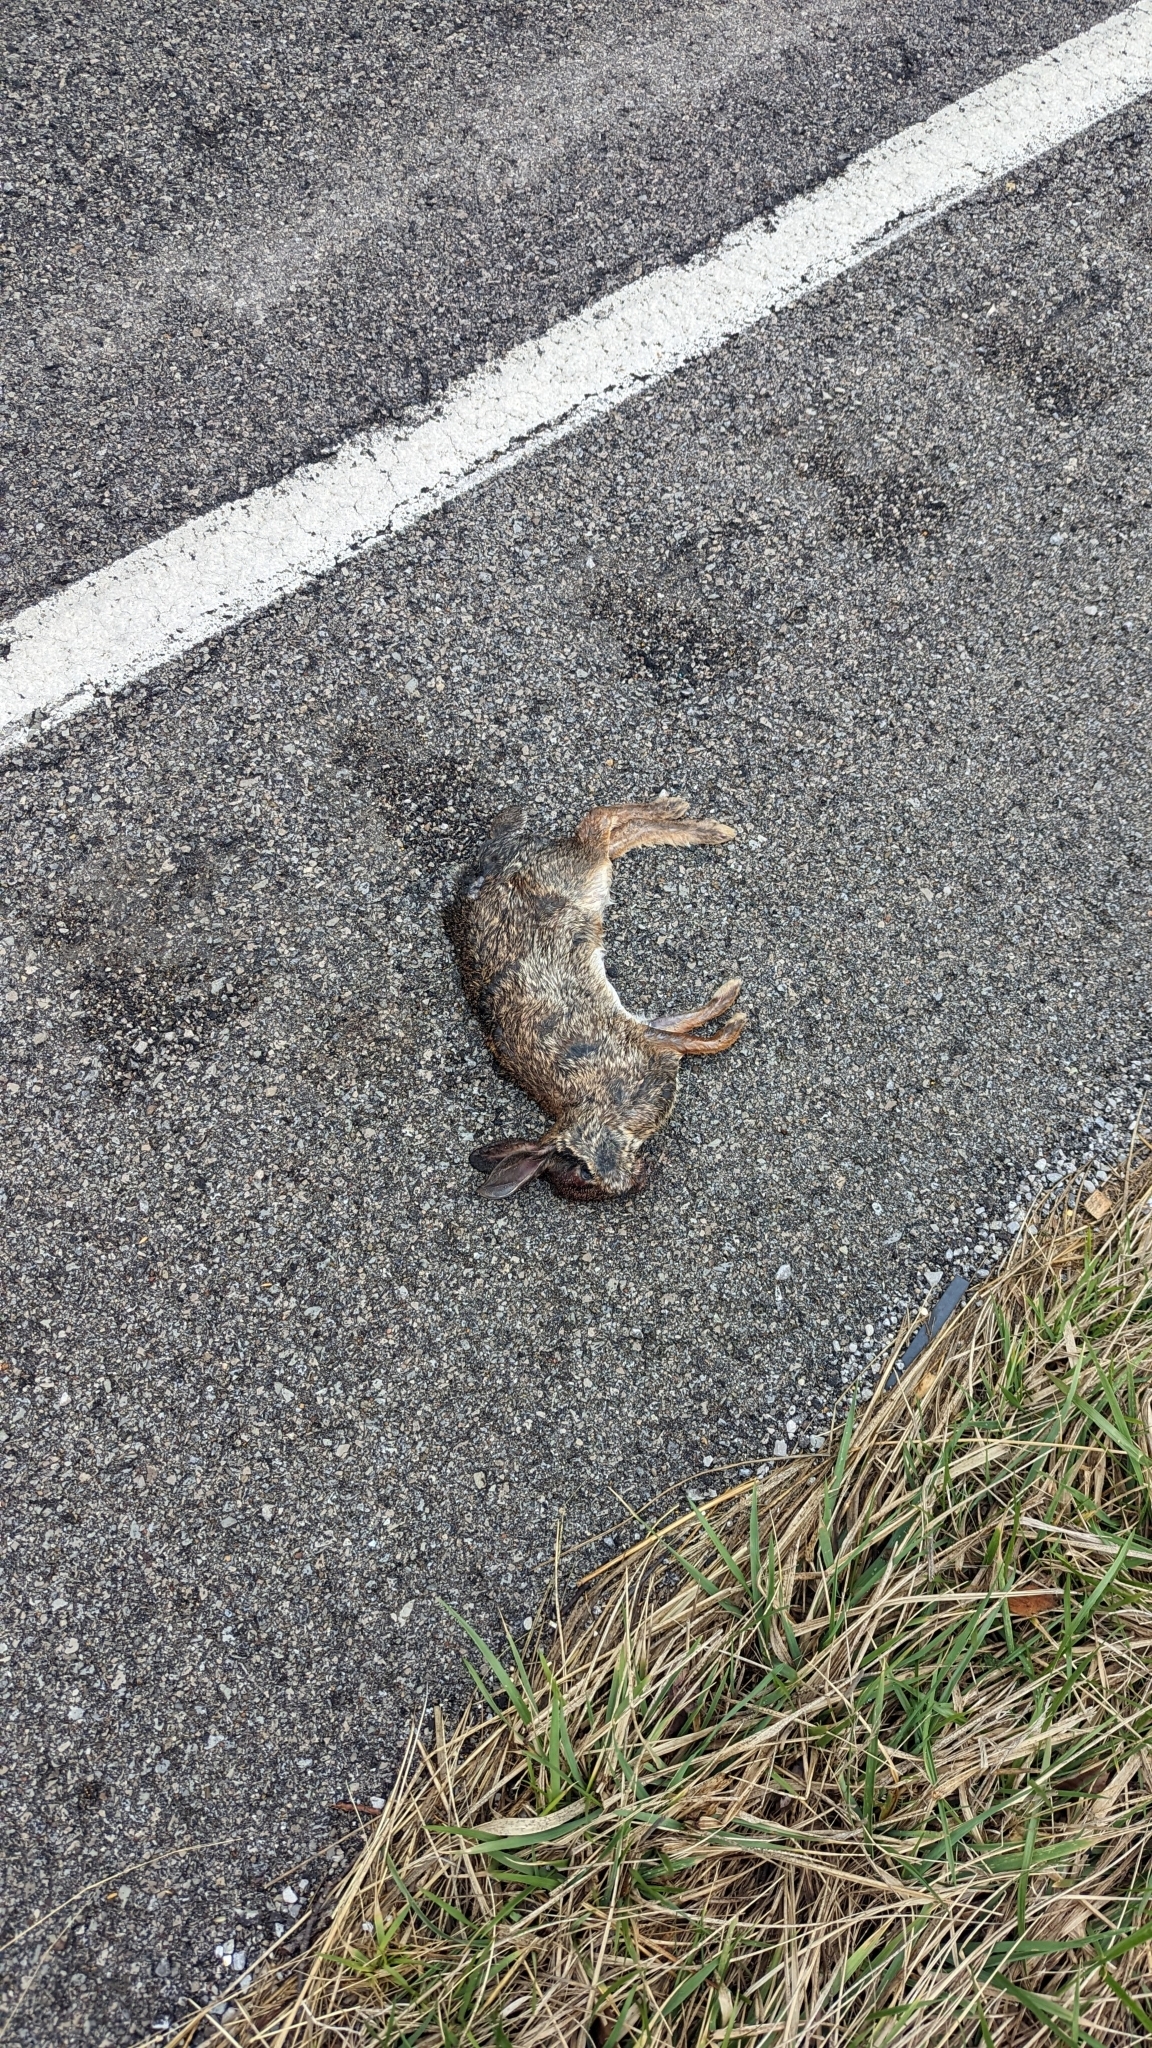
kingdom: Animalia
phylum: Chordata
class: Mammalia
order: Lagomorpha
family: Leporidae
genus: Sylvilagus
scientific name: Sylvilagus floridanus
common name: Eastern cottontail
